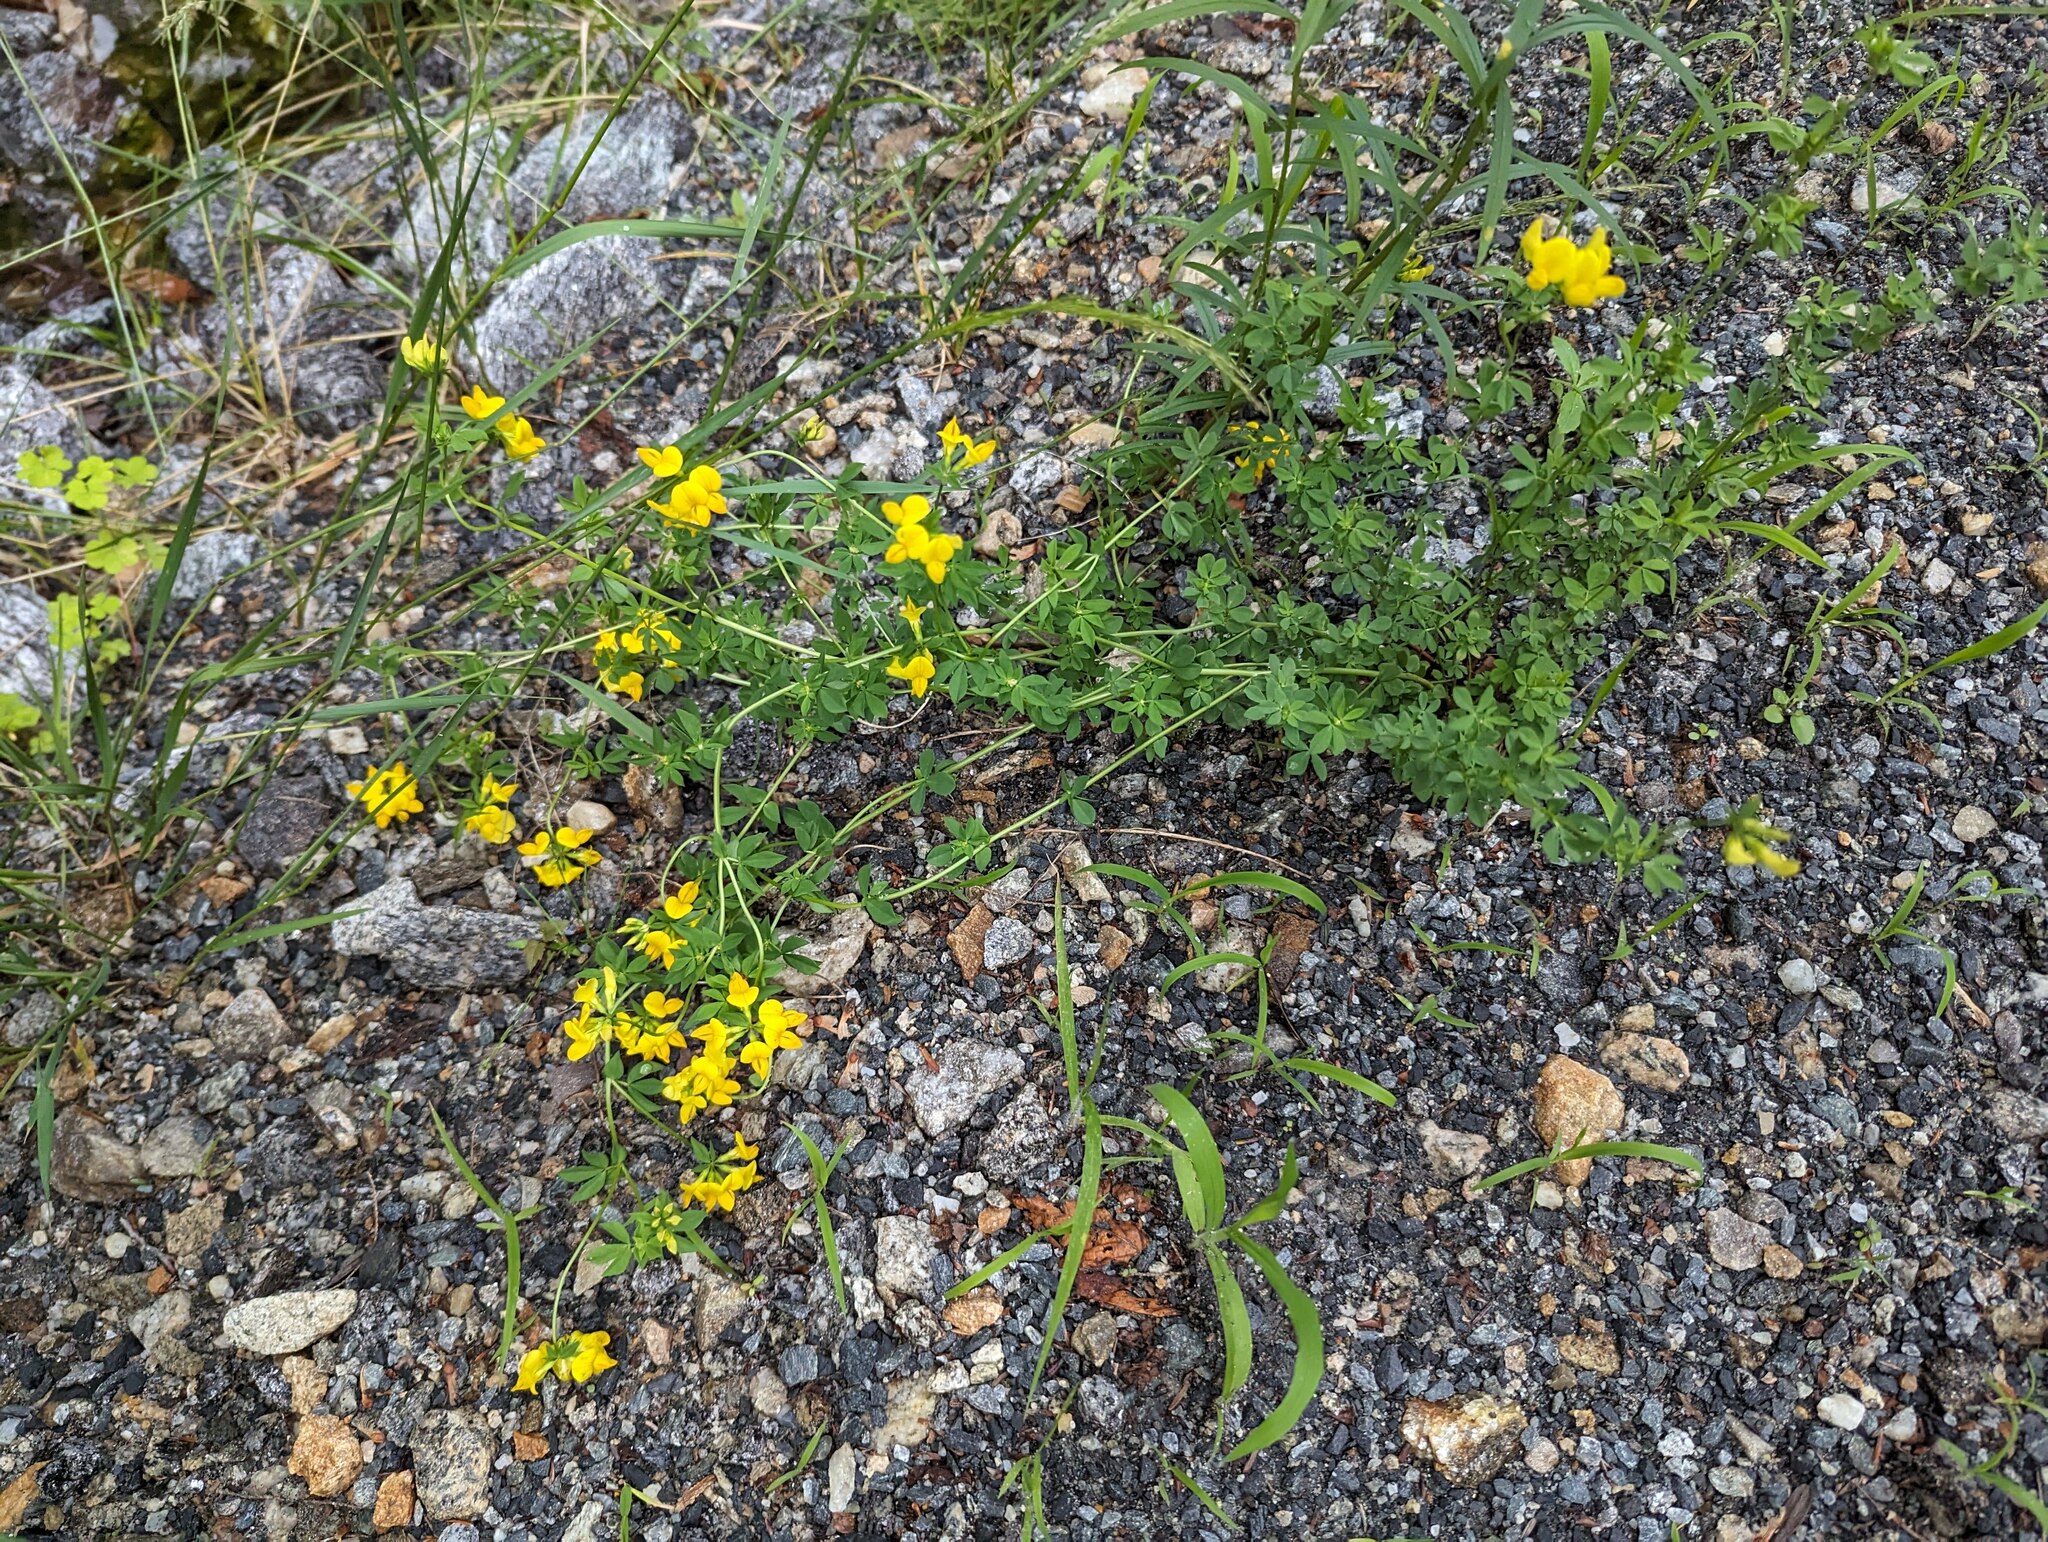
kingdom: Plantae
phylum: Tracheophyta
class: Magnoliopsida
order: Fabales
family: Fabaceae
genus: Lotus
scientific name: Lotus corniculatus
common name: Common bird's-foot-trefoil
